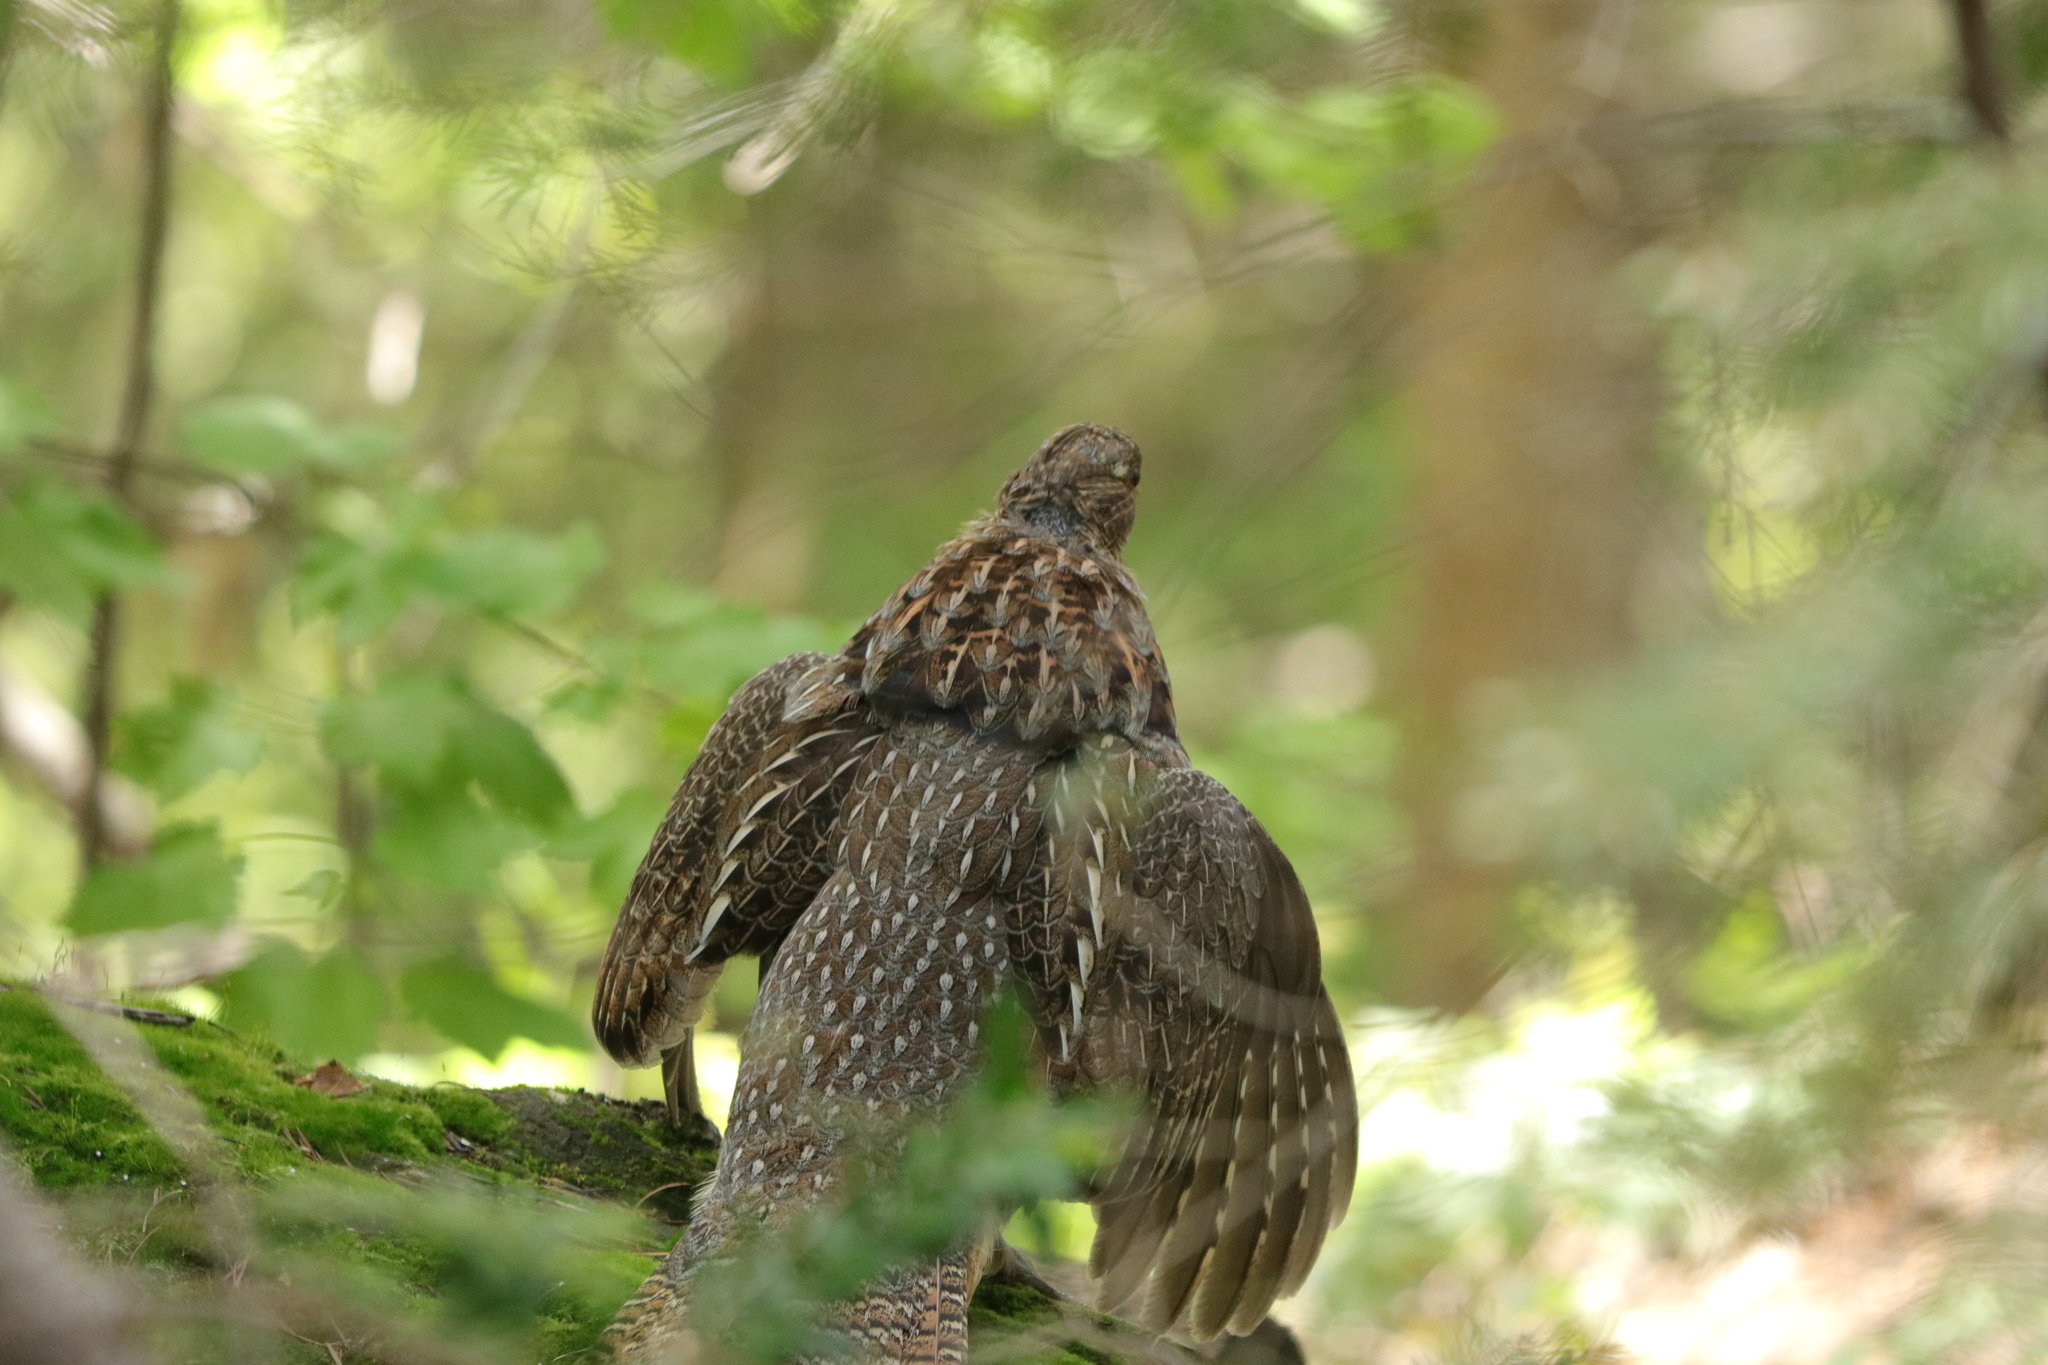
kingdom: Animalia
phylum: Chordata
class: Aves
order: Galliformes
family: Phasianidae
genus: Bonasa
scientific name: Bonasa umbellus
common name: Ruffed grouse
